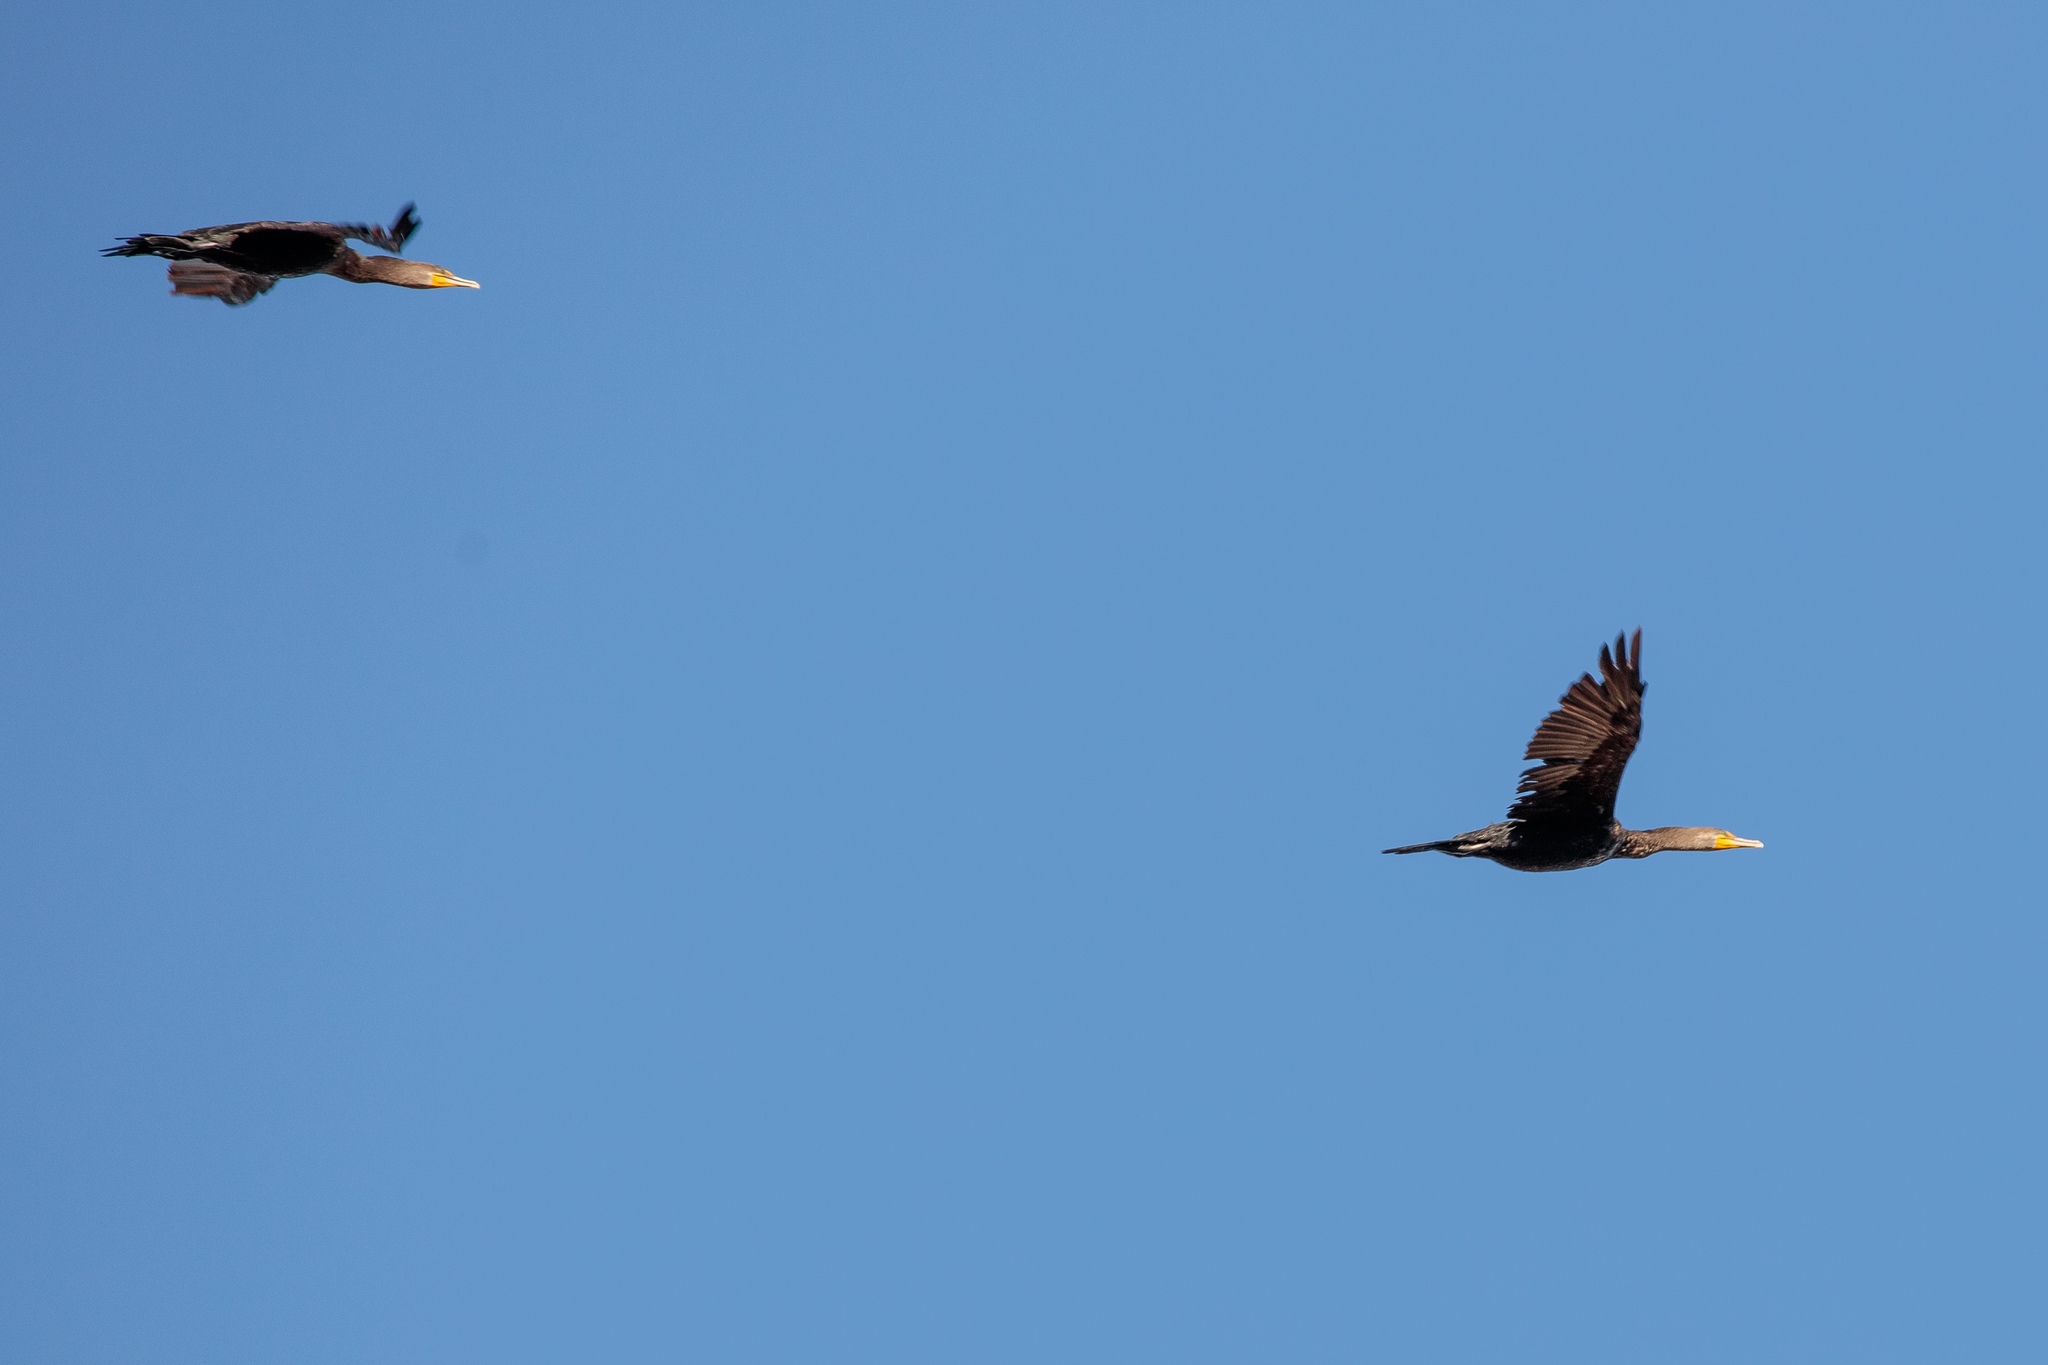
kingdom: Animalia
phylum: Chordata
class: Aves
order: Suliformes
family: Phalacrocoracidae
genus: Phalacrocorax
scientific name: Phalacrocorax auritus
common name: Double-crested cormorant
